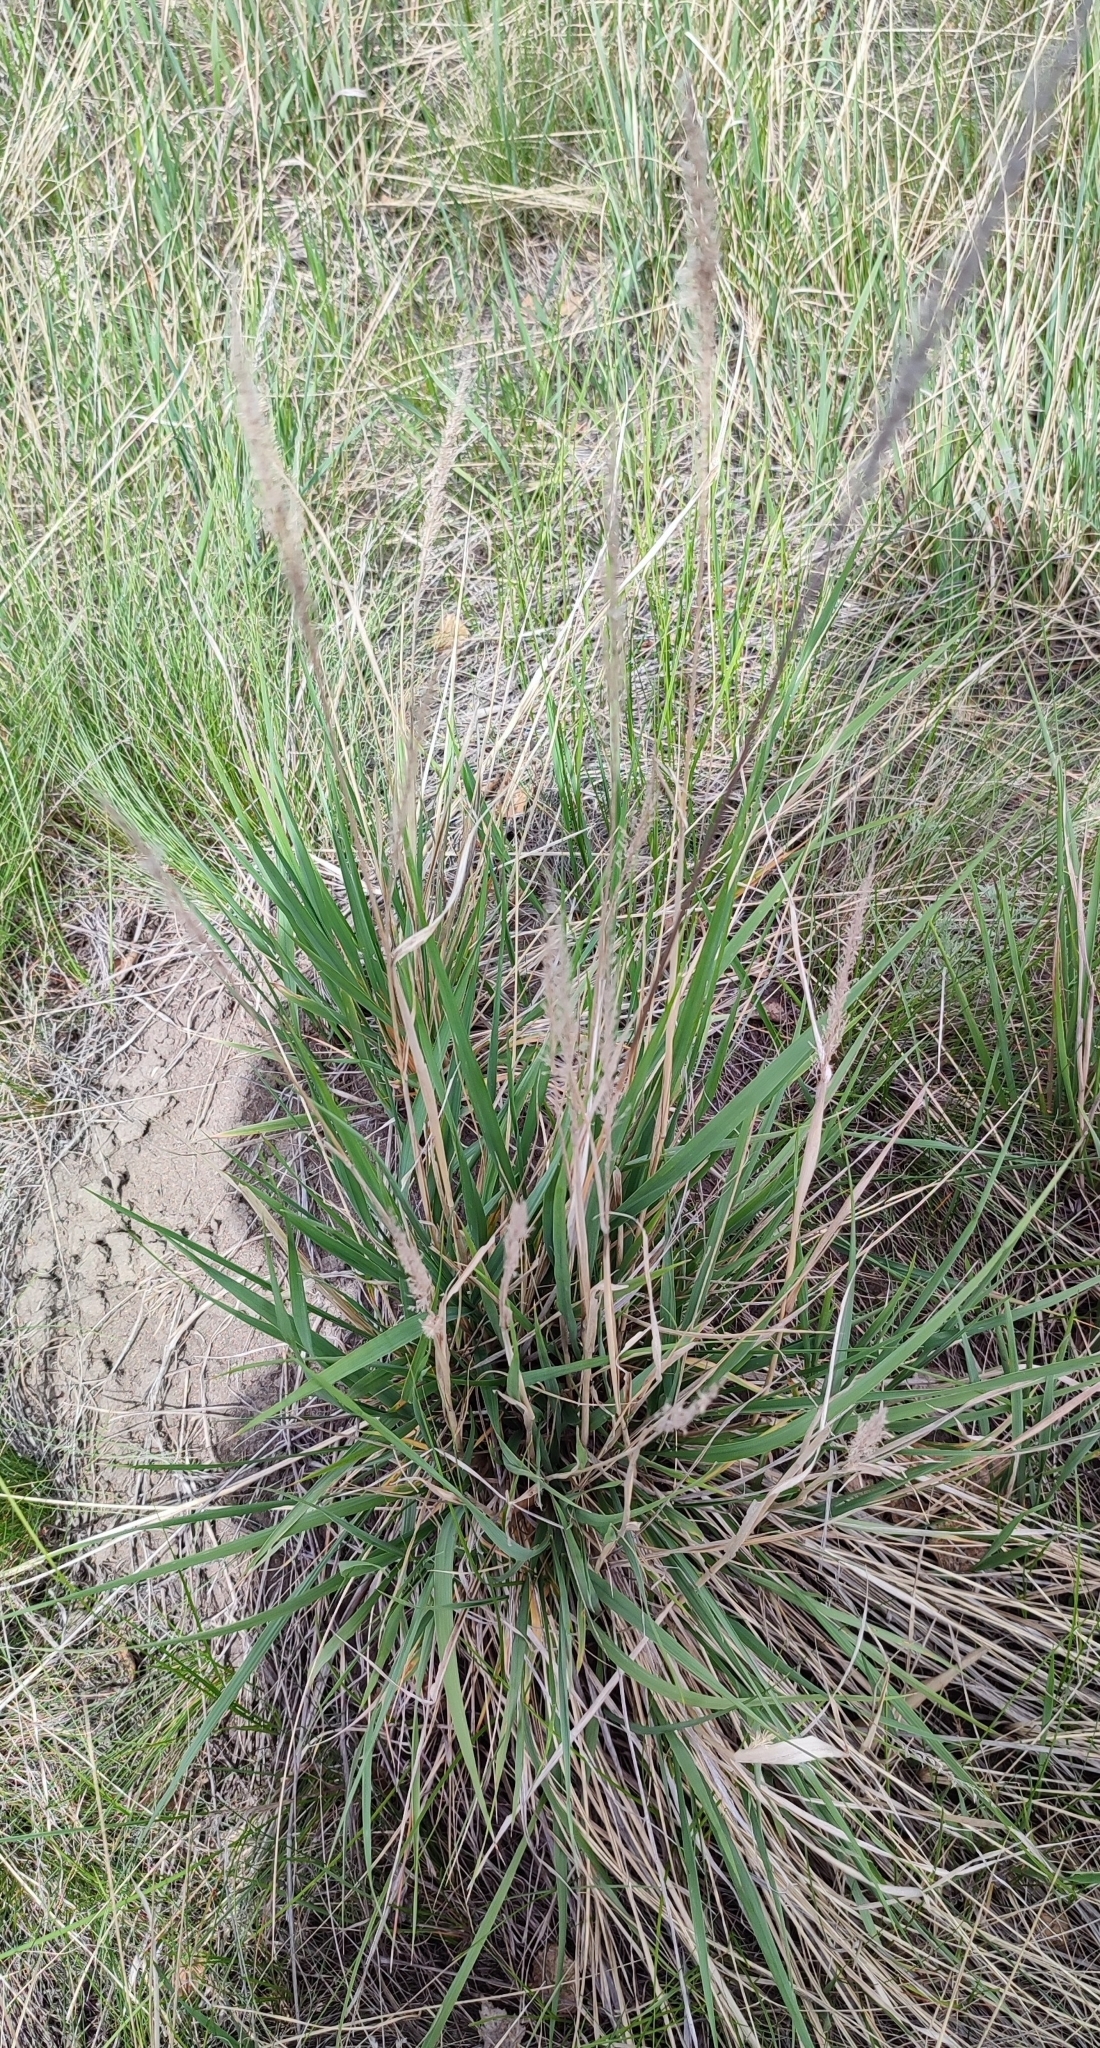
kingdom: Plantae
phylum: Tracheophyta
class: Liliopsida
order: Poales
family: Poaceae
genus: Calamagrostis
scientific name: Calamagrostis epigejos
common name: Wood small-reed
